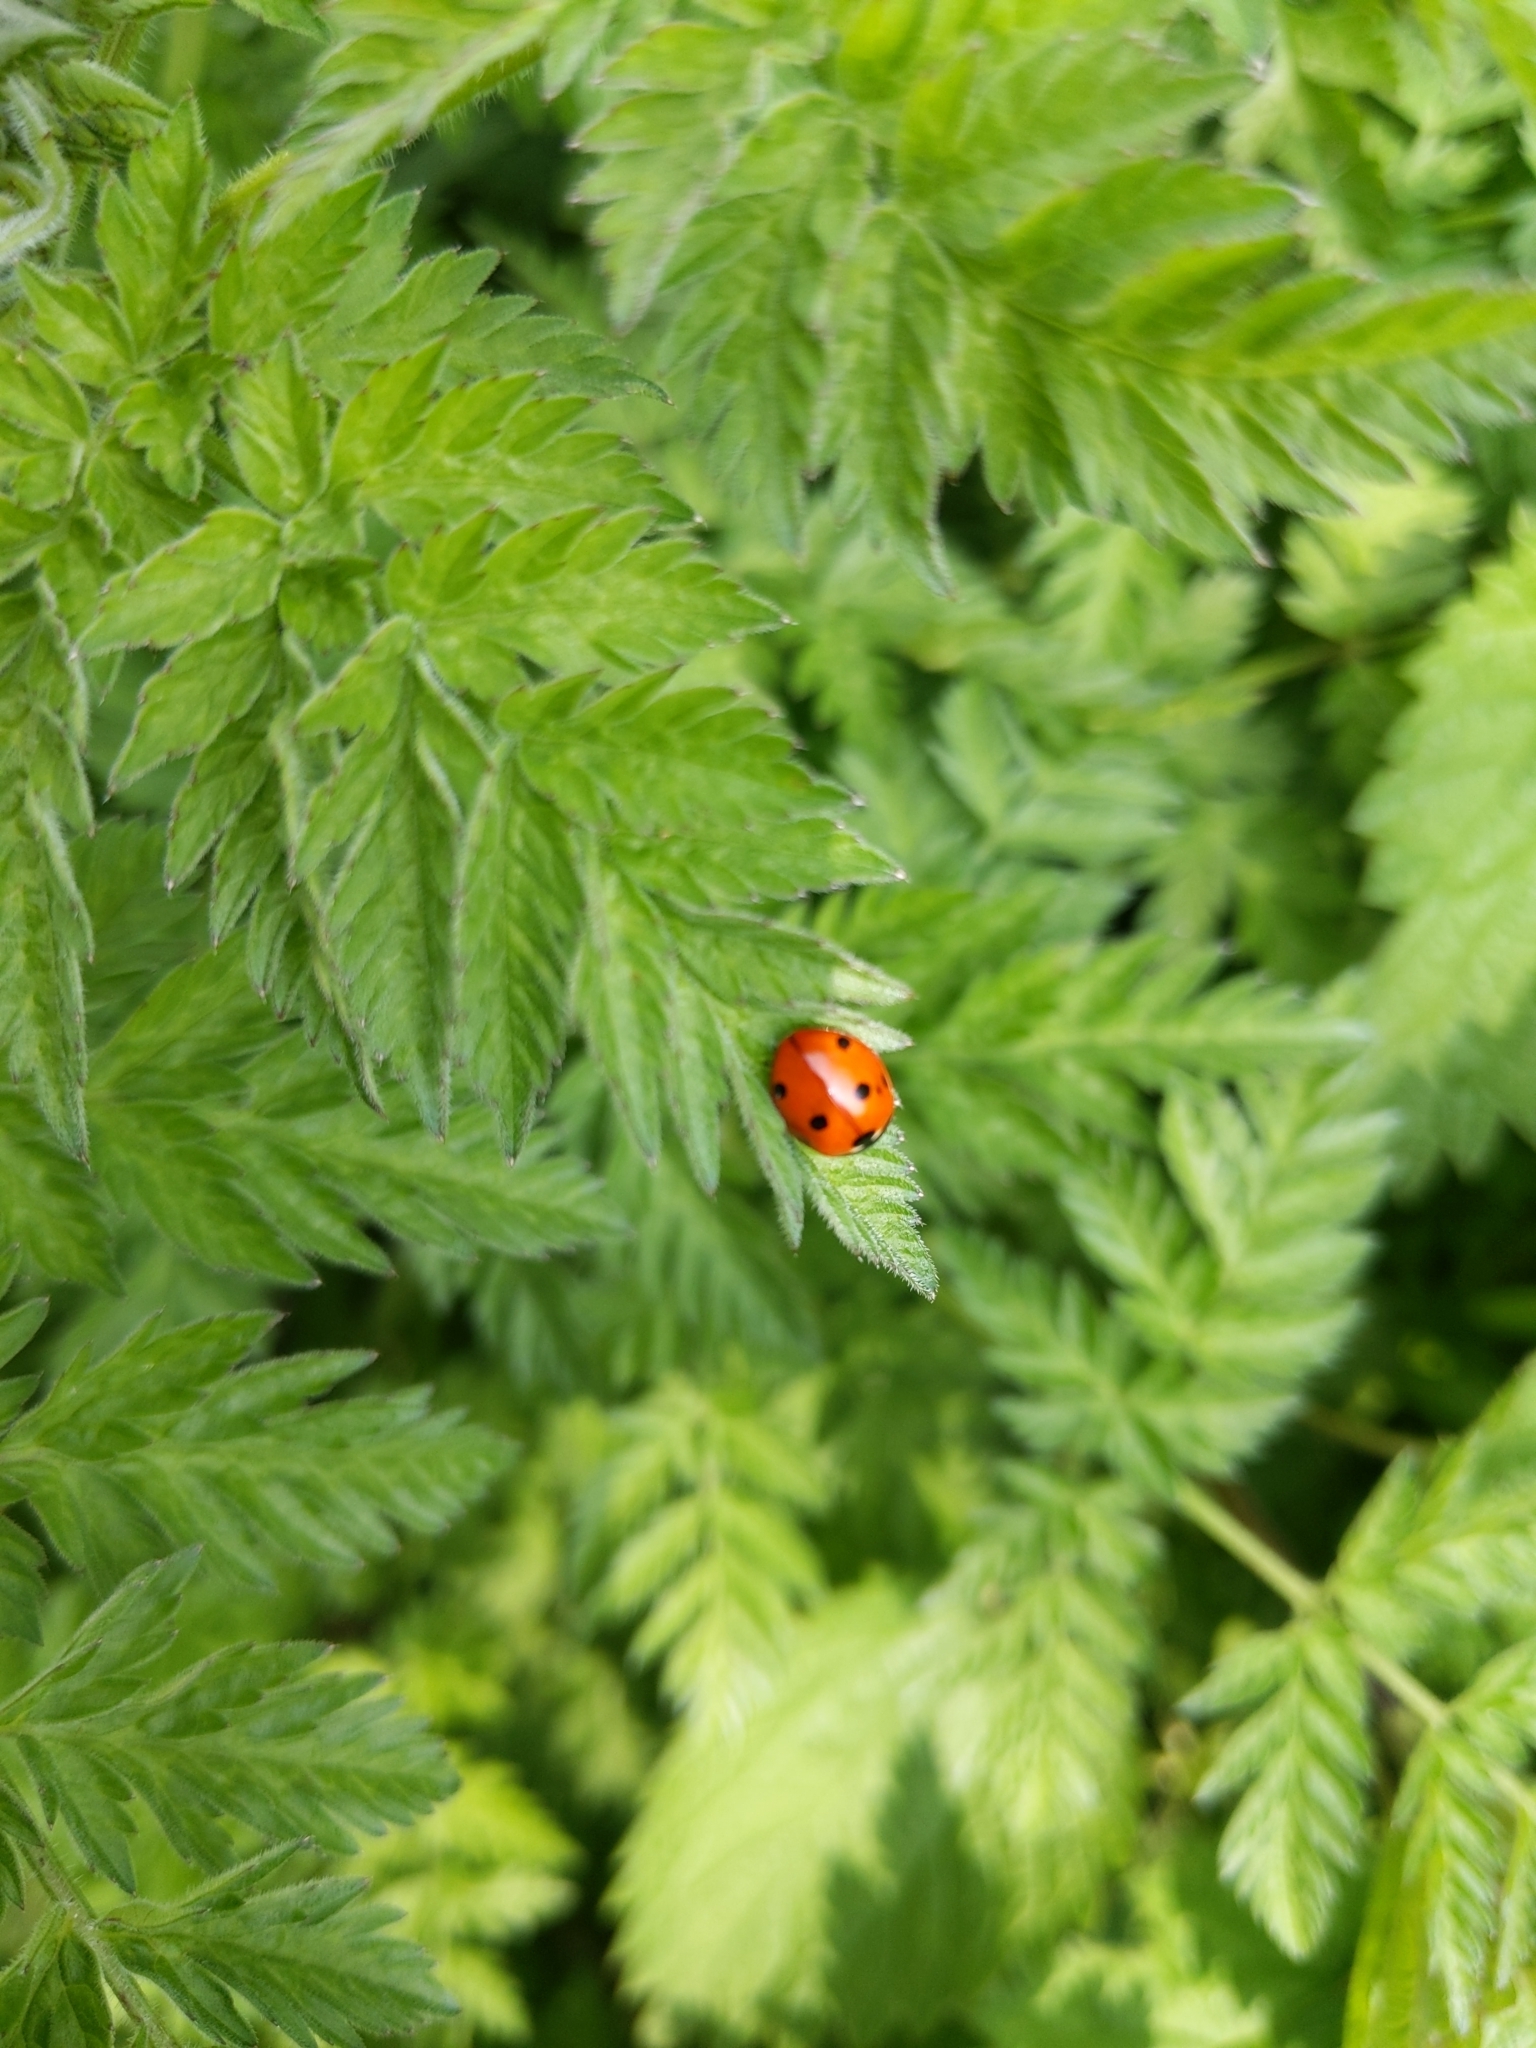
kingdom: Animalia
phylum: Arthropoda
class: Insecta
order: Coleoptera
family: Coccinellidae
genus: Coccinella
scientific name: Coccinella septempunctata
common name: Sevenspotted lady beetle
